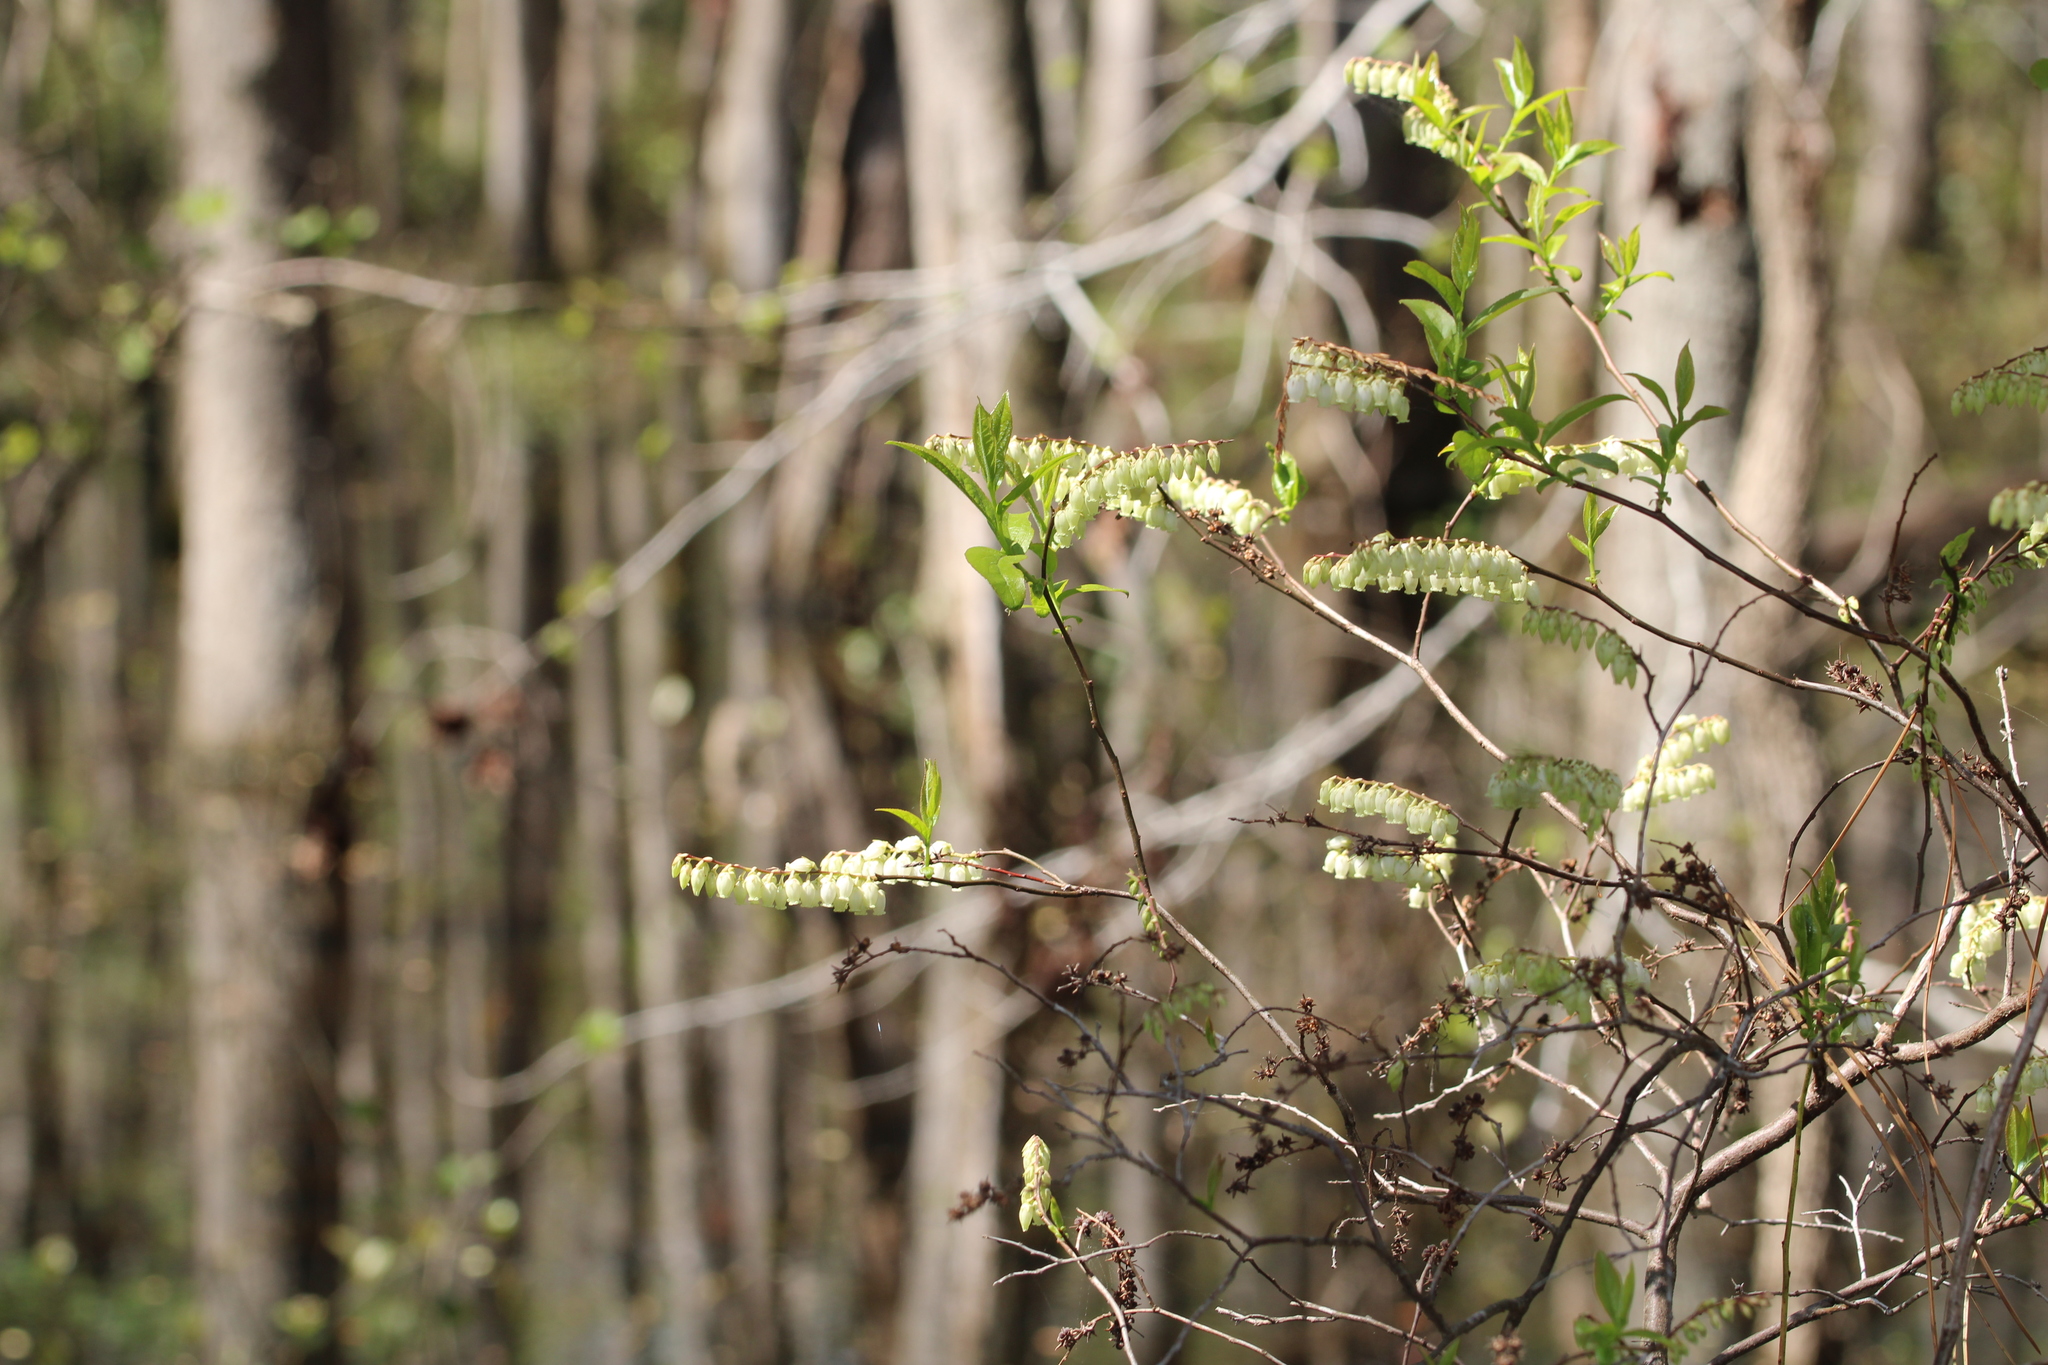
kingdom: Plantae
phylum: Tracheophyta
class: Magnoliopsida
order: Ericales
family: Ericaceae
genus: Eubotrys
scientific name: Eubotrys racemosa
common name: Fetterbush
